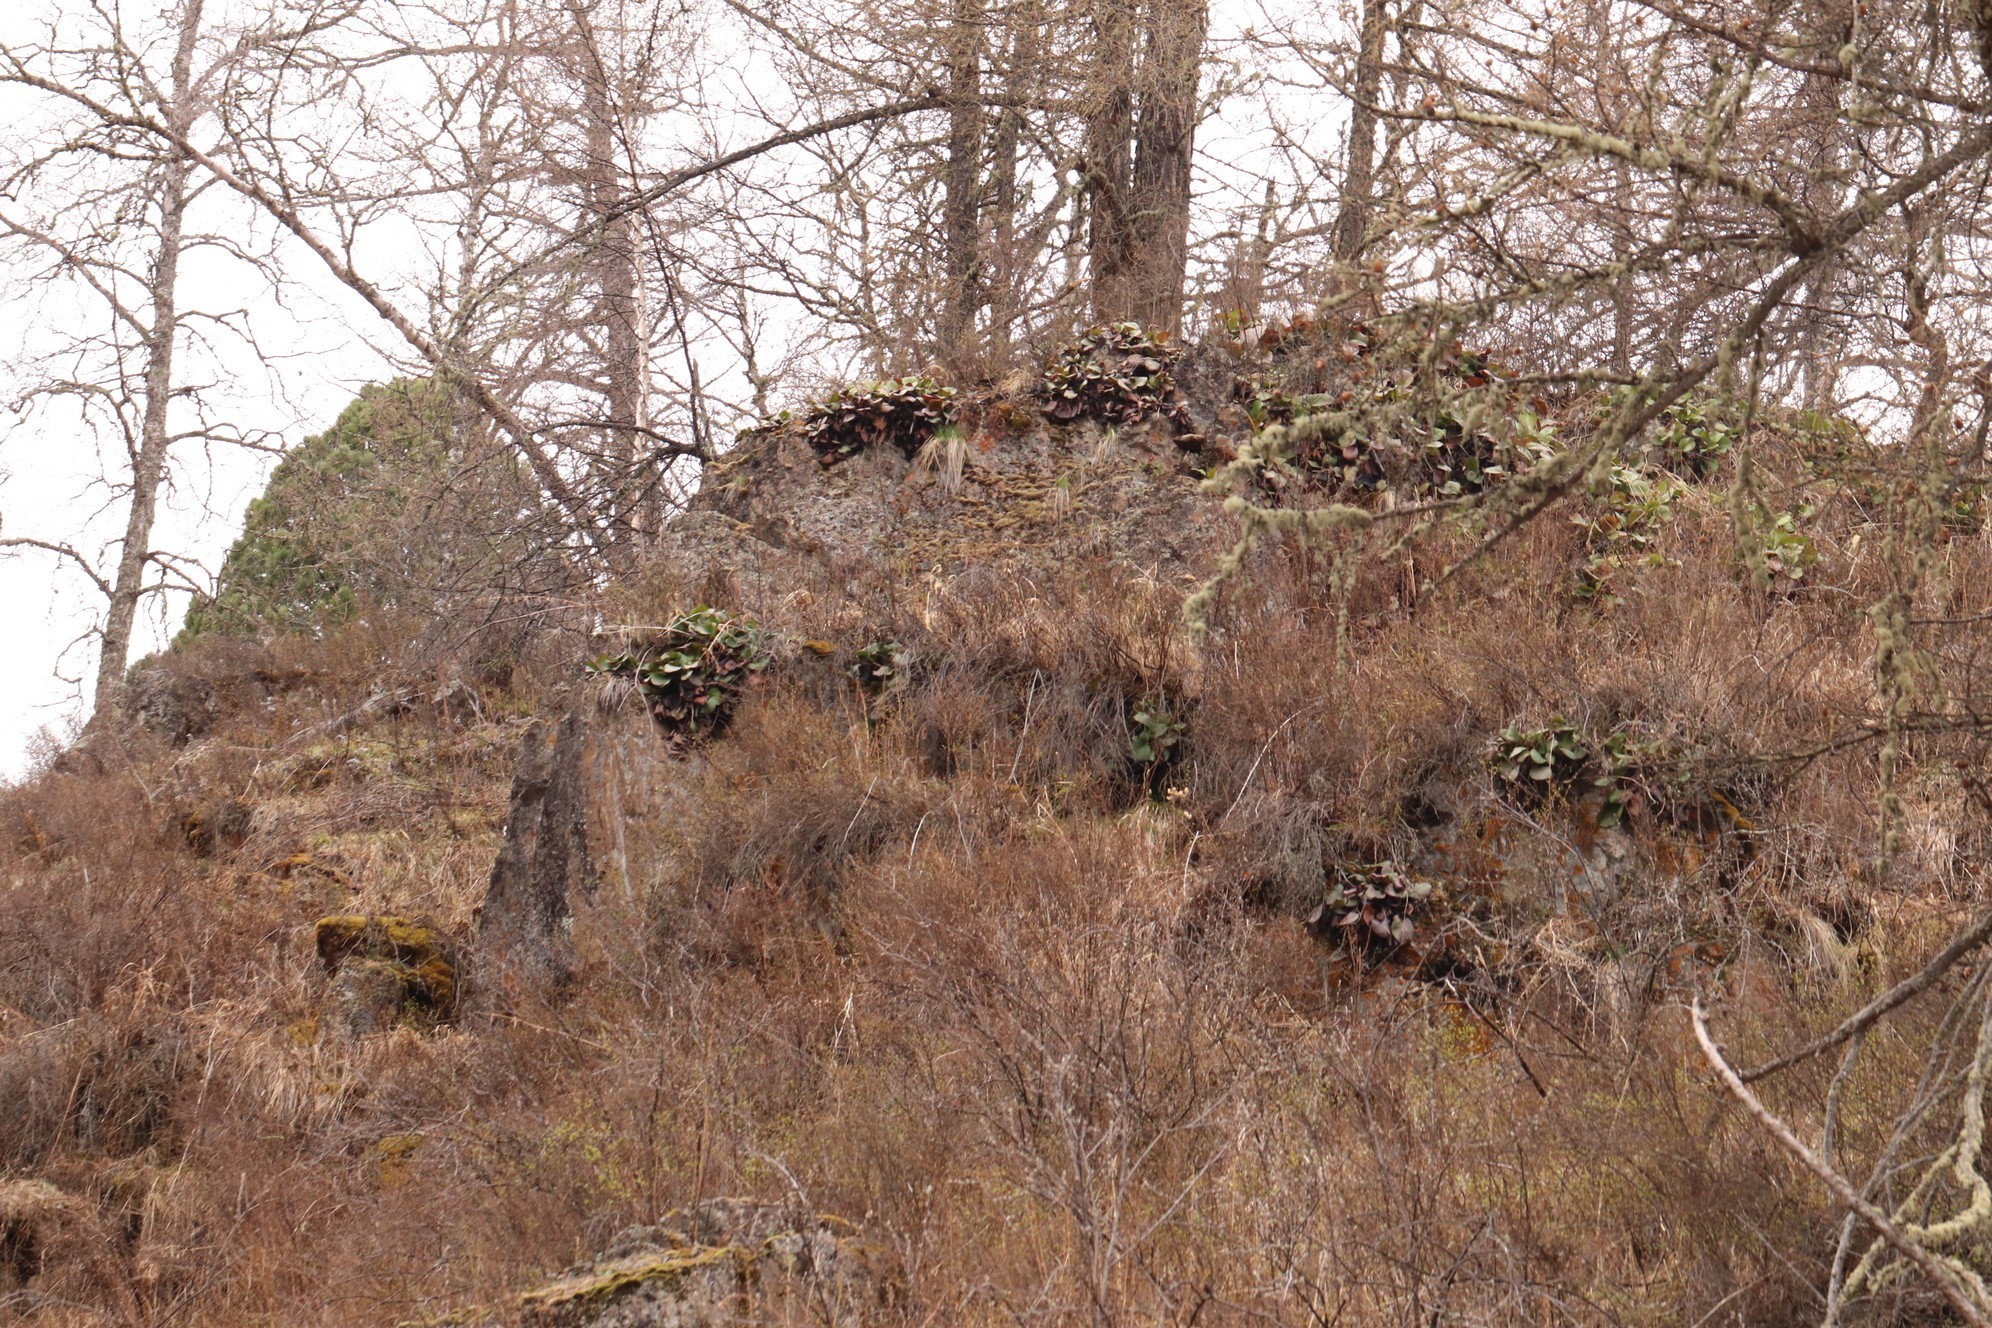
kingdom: Plantae
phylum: Tracheophyta
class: Magnoliopsida
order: Saxifragales
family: Saxifragaceae
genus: Bergenia
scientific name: Bergenia crassifolia
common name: Elephant-ears
